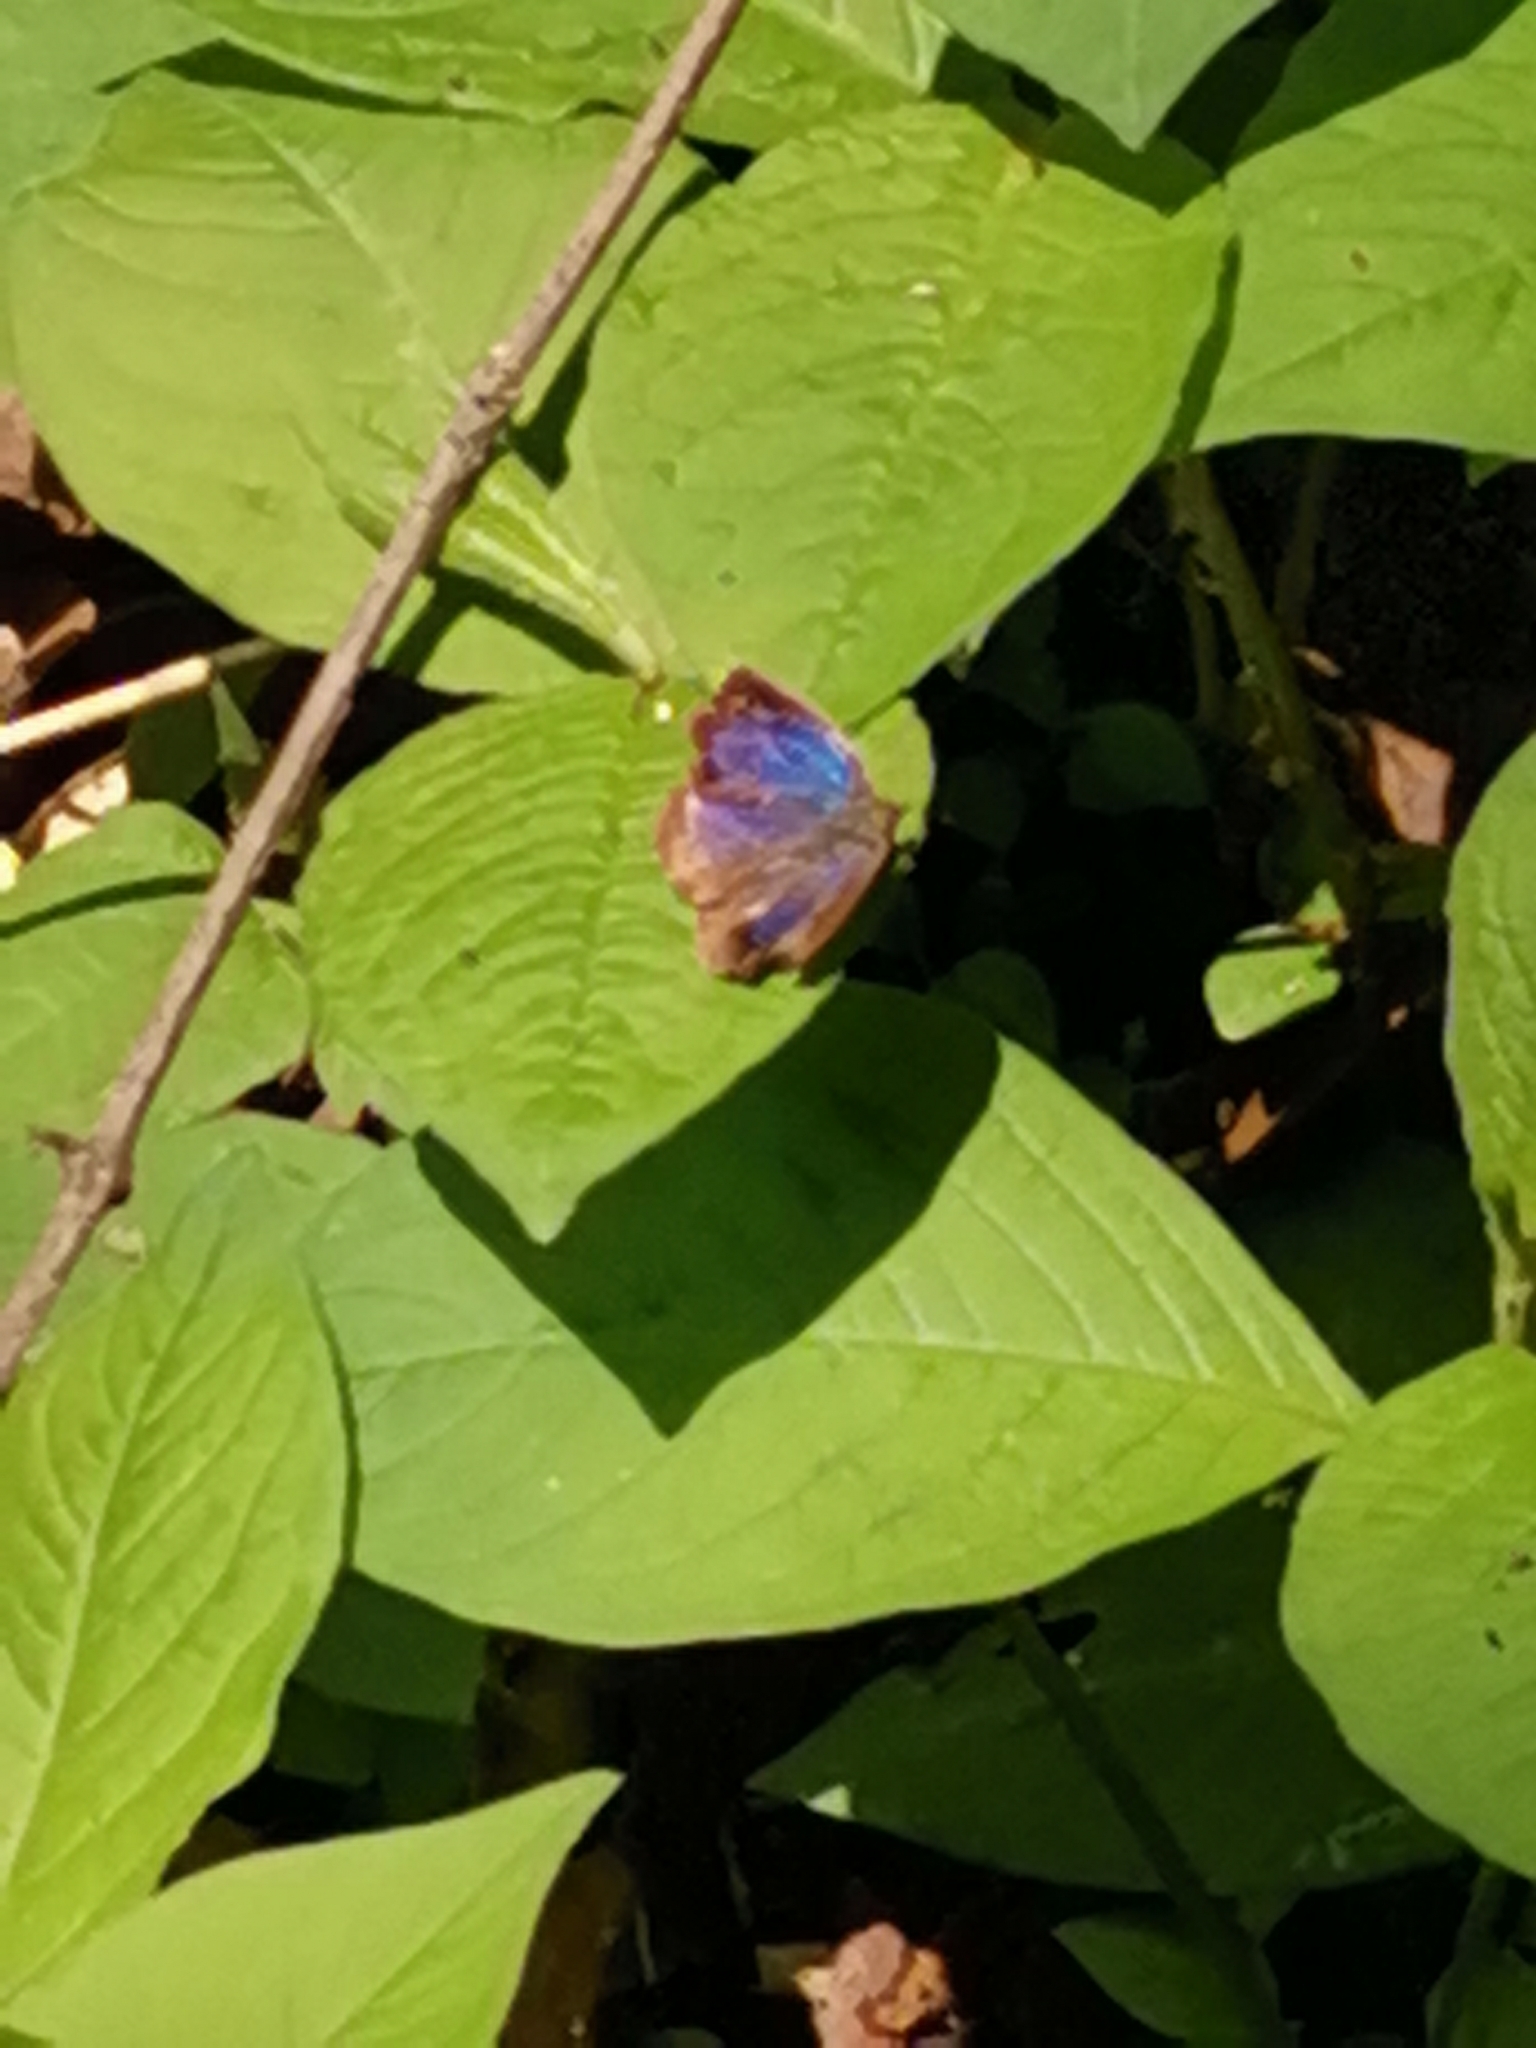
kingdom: Animalia
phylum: Arthropoda
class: Insecta
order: Lepidoptera
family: Lycaenidae
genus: Arhopala
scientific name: Arhopala japonica
